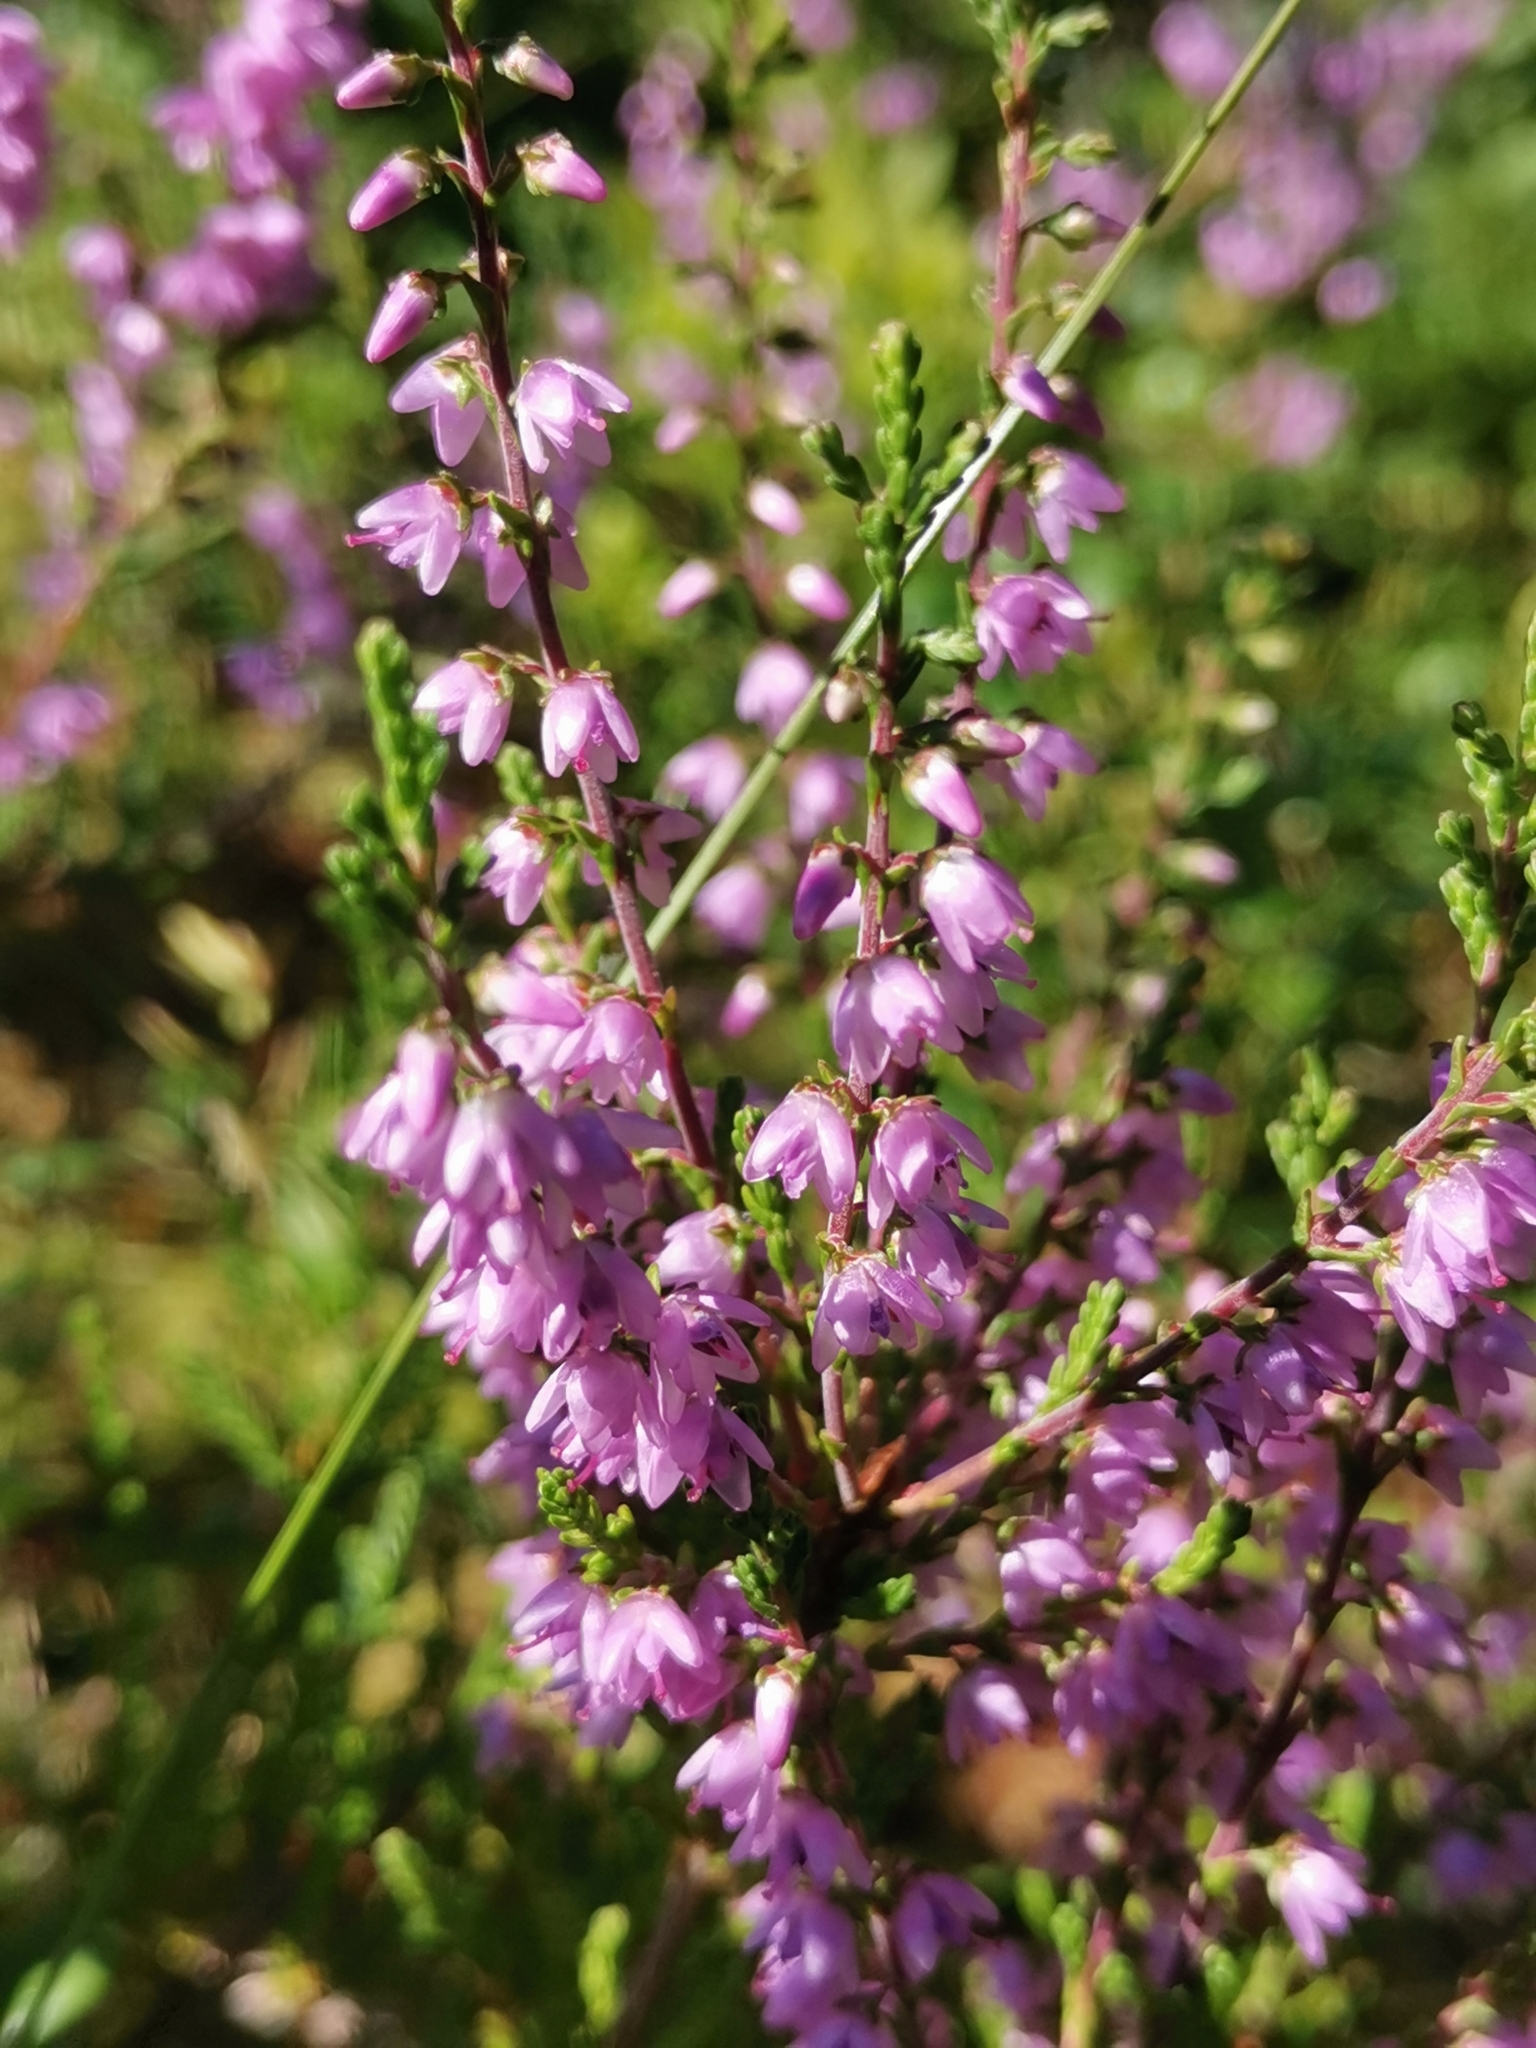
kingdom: Plantae
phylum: Tracheophyta
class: Magnoliopsida
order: Ericales
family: Ericaceae
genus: Calluna
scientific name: Calluna vulgaris
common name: Heather
